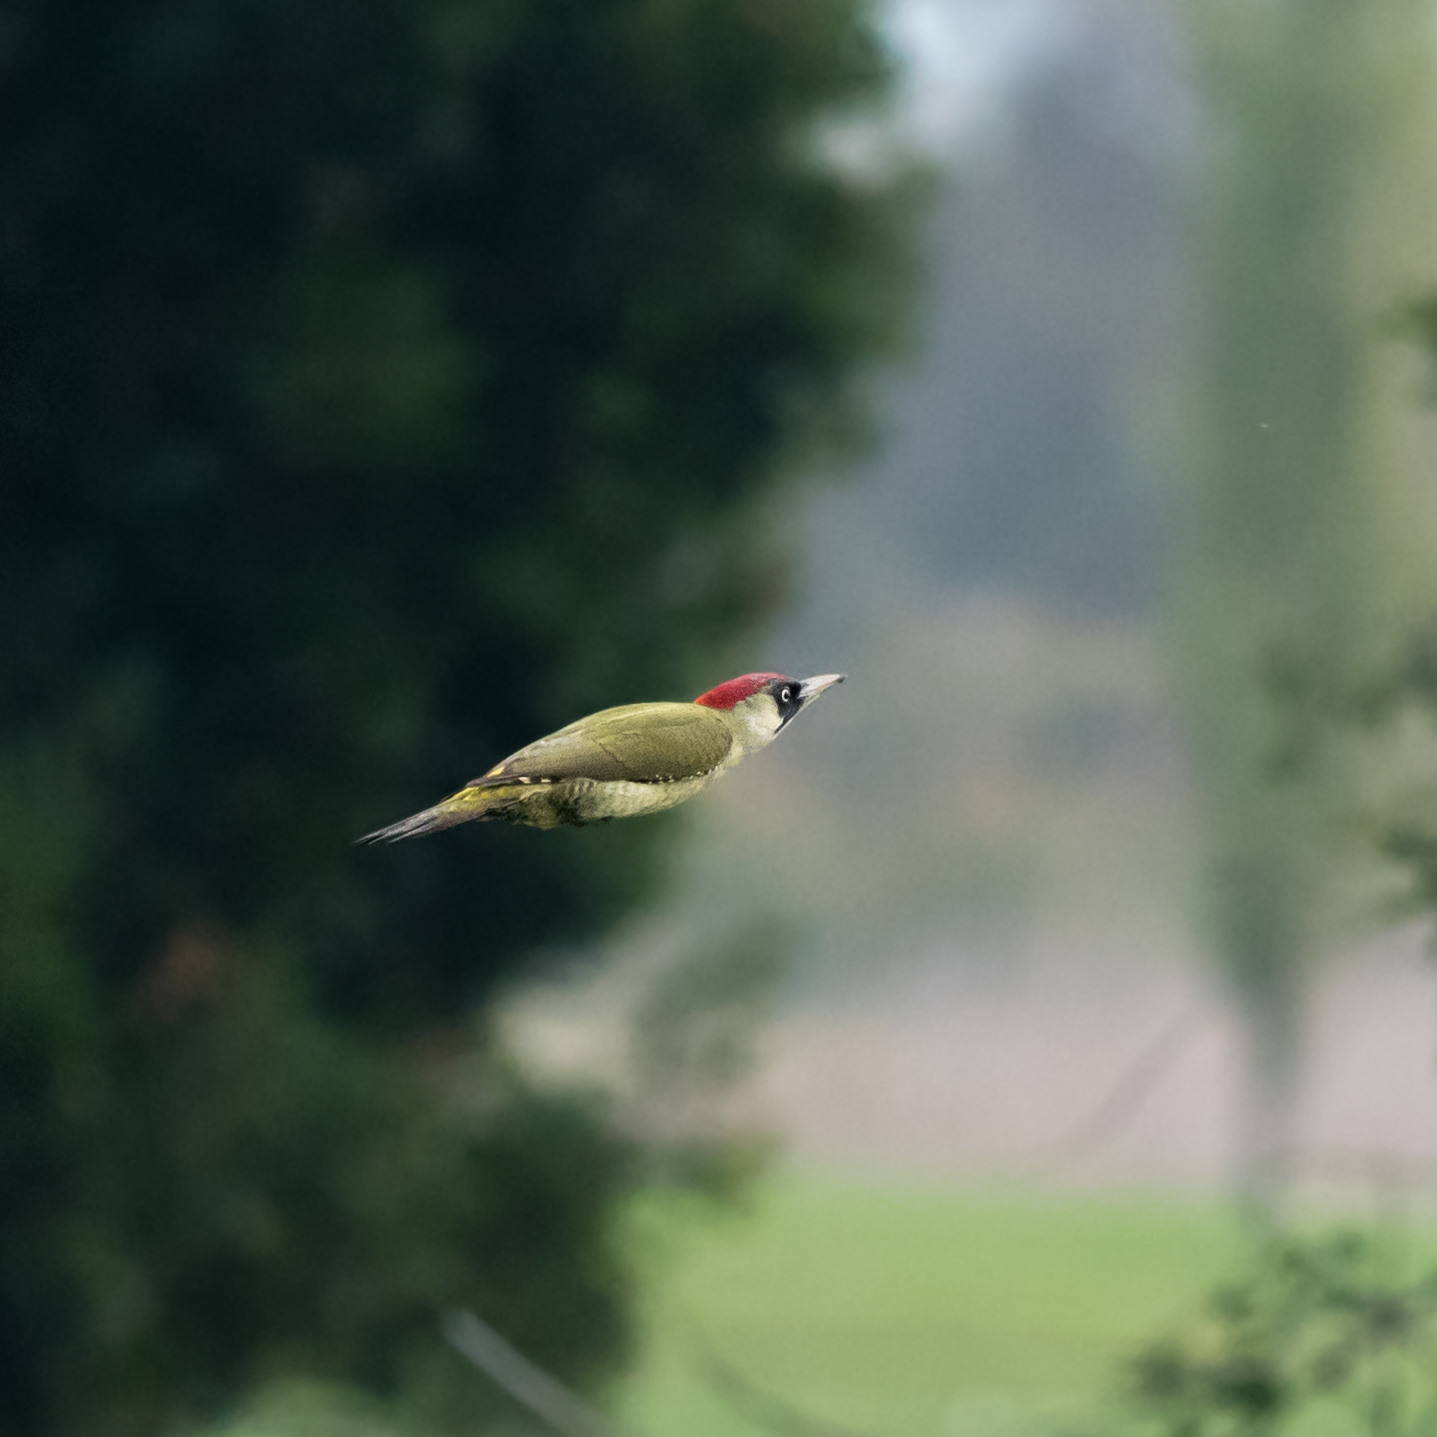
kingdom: Animalia
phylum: Chordata
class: Aves
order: Piciformes
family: Picidae
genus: Picus
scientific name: Picus viridis
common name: European green woodpecker
